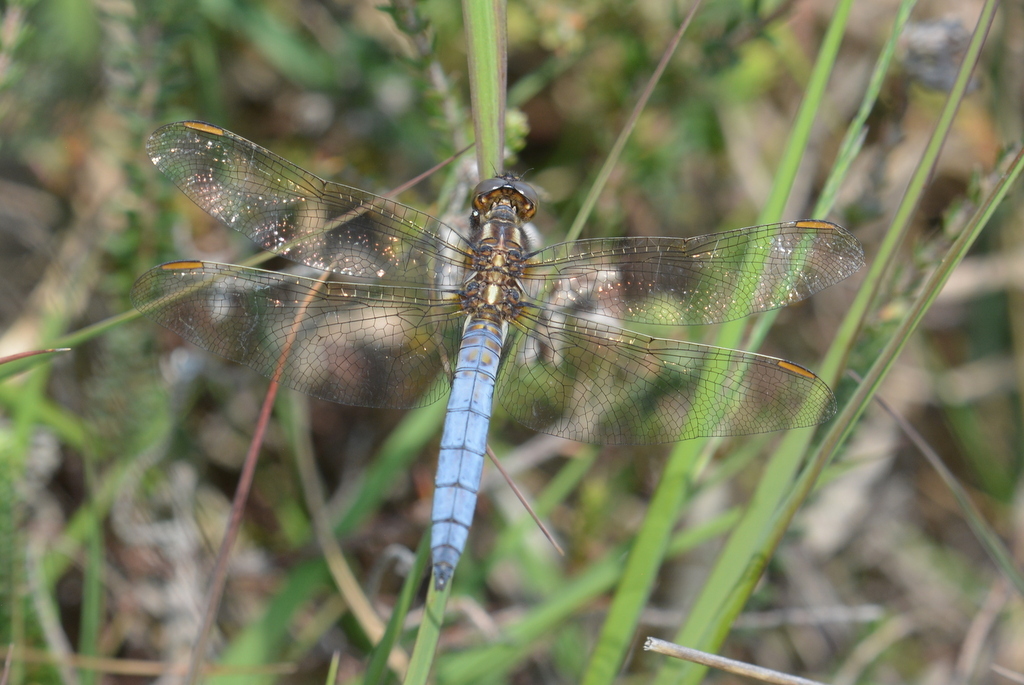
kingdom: Animalia
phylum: Arthropoda
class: Insecta
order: Odonata
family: Libellulidae
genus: Orthetrum
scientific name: Orthetrum coerulescens
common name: Keeled skimmer
